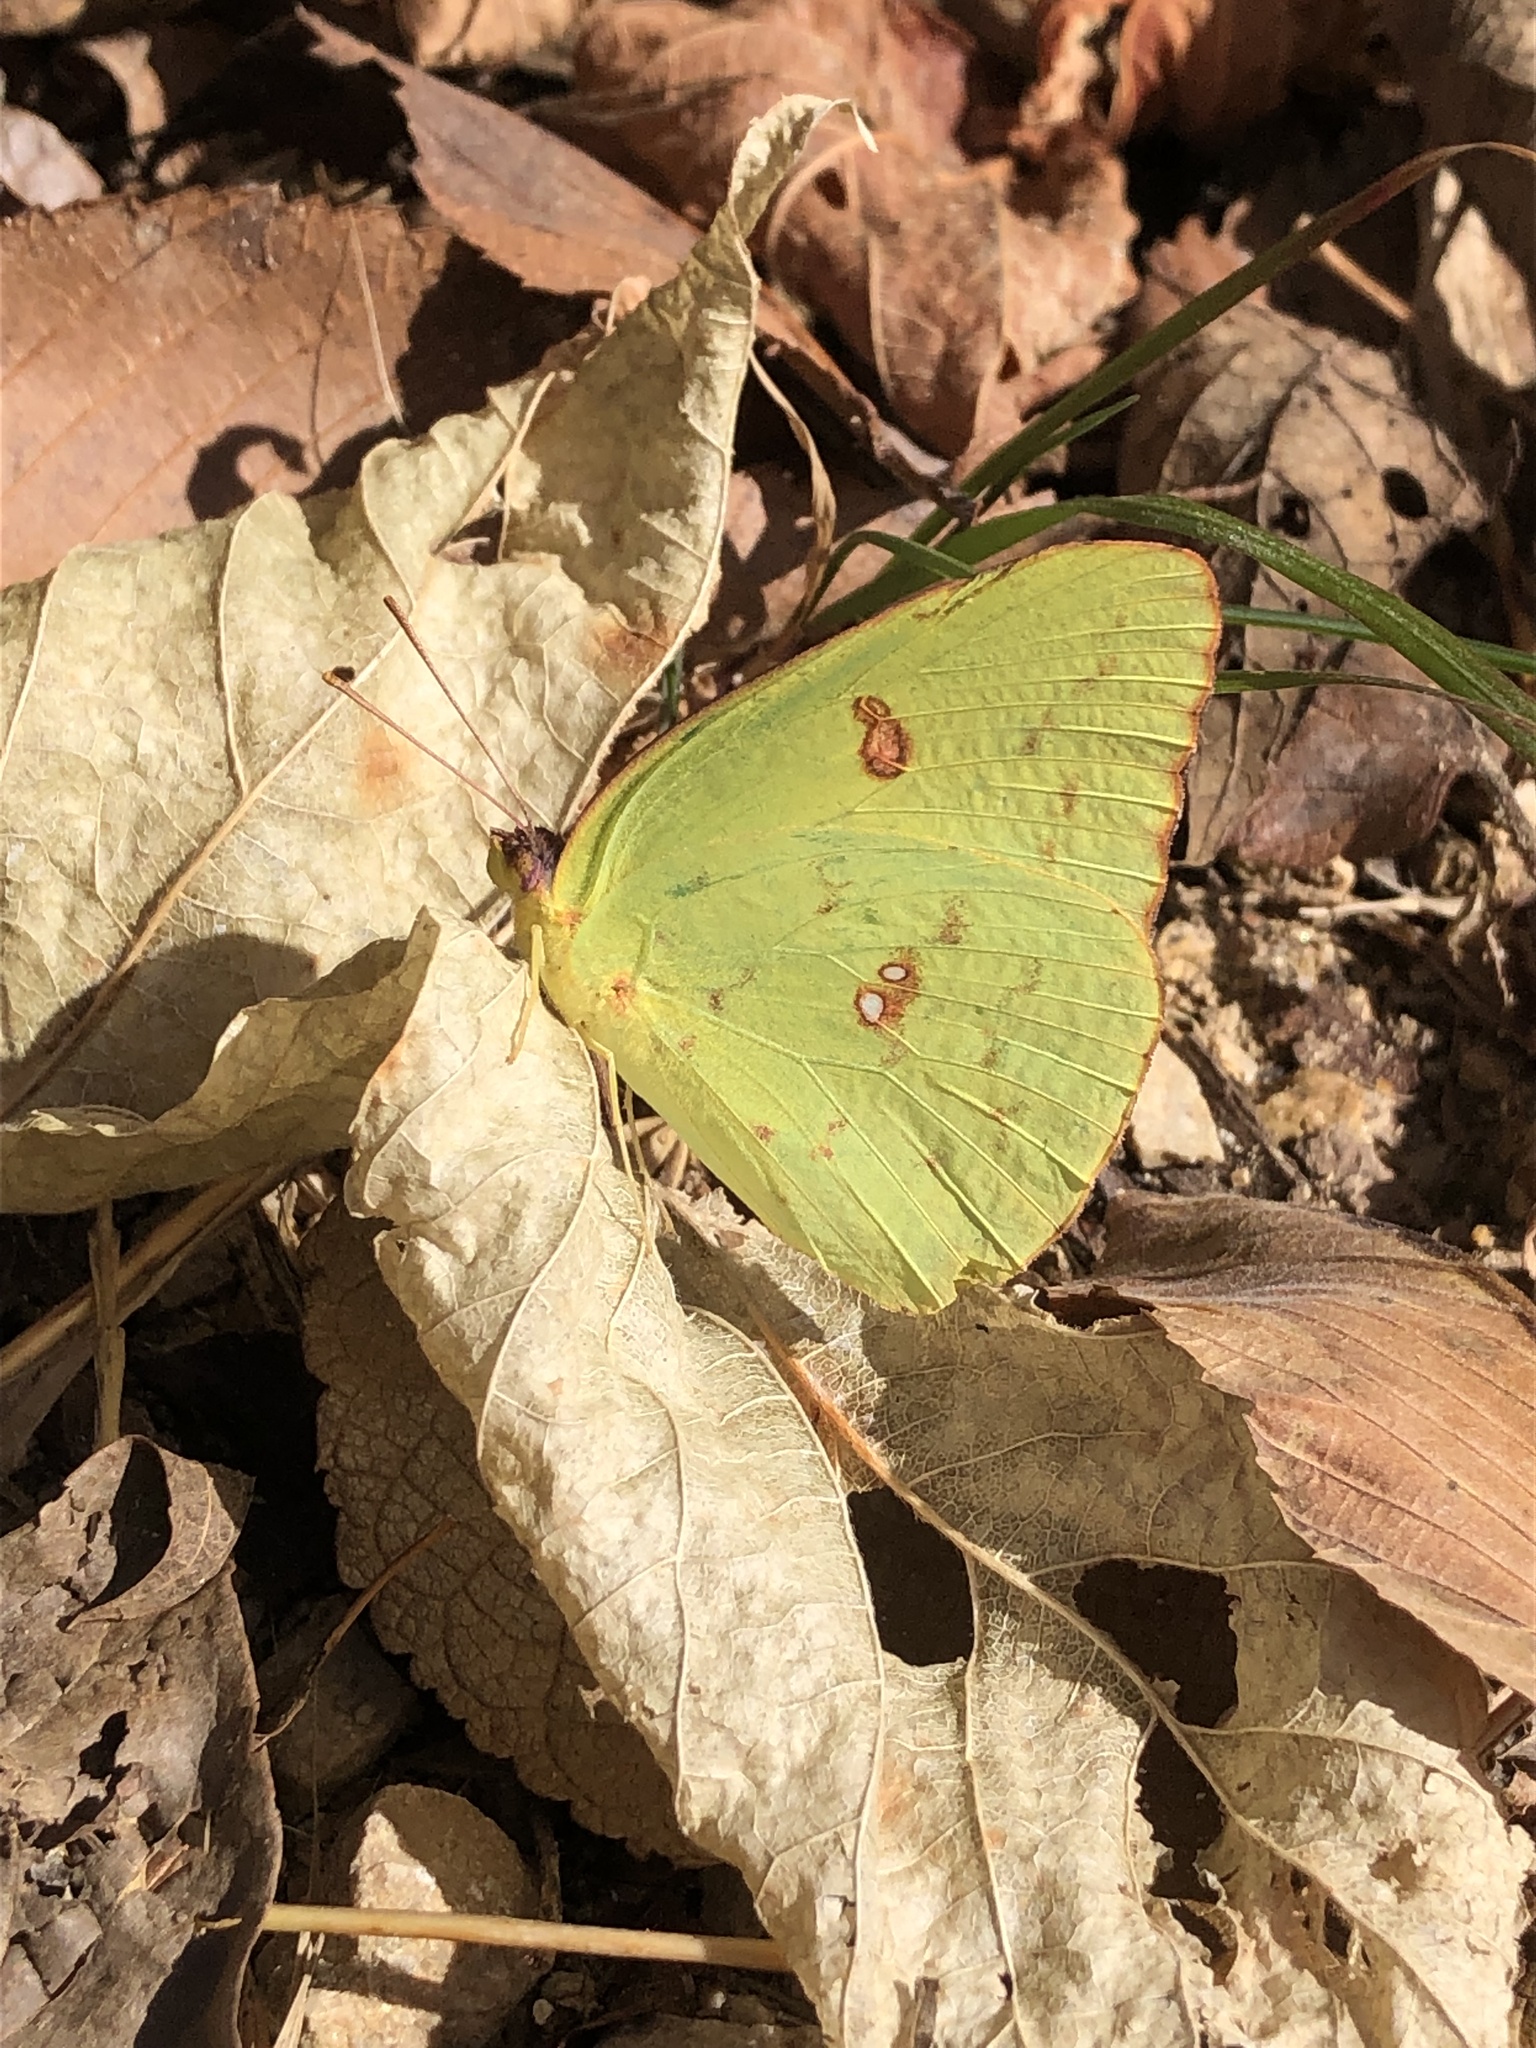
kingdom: Animalia
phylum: Arthropoda
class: Insecta
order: Lepidoptera
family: Pieridae
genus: Phoebis
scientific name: Phoebis sennae
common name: Cloudless sulphur
